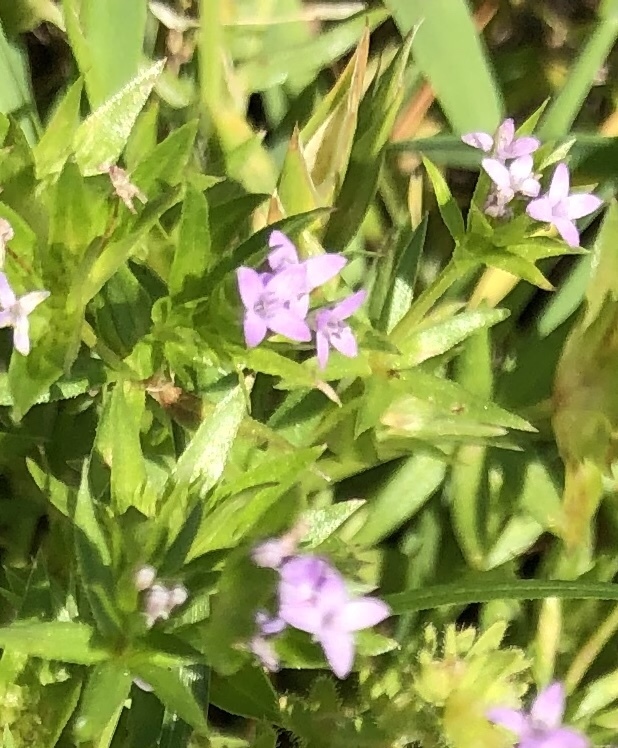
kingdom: Plantae
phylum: Tracheophyta
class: Magnoliopsida
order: Gentianales
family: Rubiaceae
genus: Sherardia
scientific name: Sherardia arvensis
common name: Field madder
